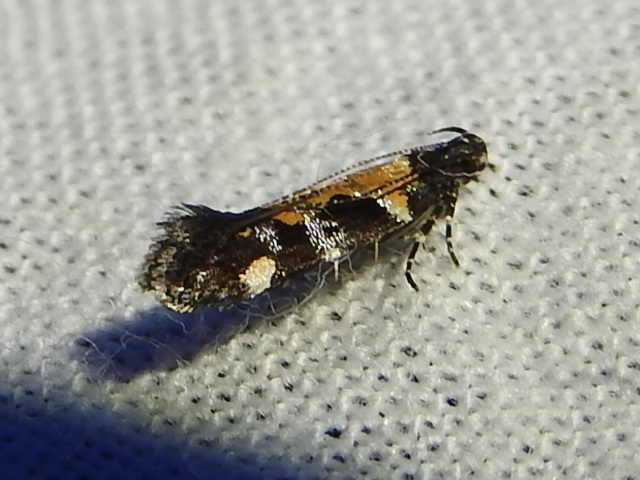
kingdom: Animalia
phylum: Arthropoda
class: Insecta
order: Lepidoptera
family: Gelechiidae
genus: Stegasta
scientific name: Stegasta bosqueella
